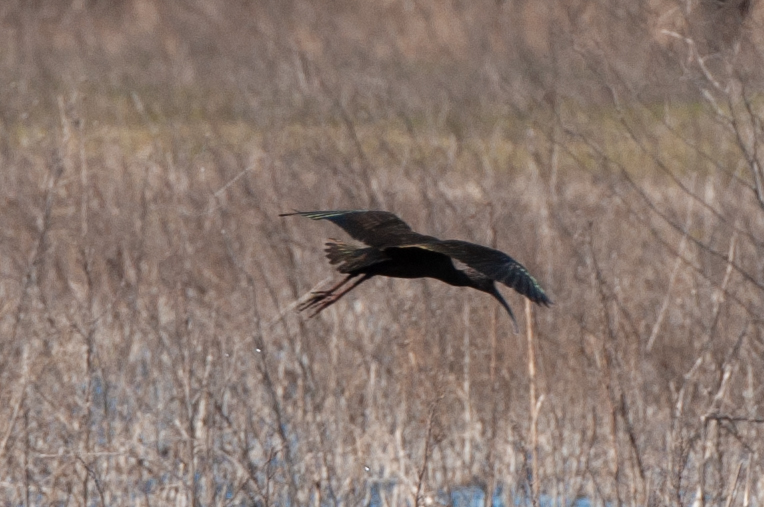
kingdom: Animalia
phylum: Chordata
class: Aves
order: Pelecaniformes
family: Threskiornithidae
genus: Plegadis
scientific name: Plegadis chihi
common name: White-faced ibis
